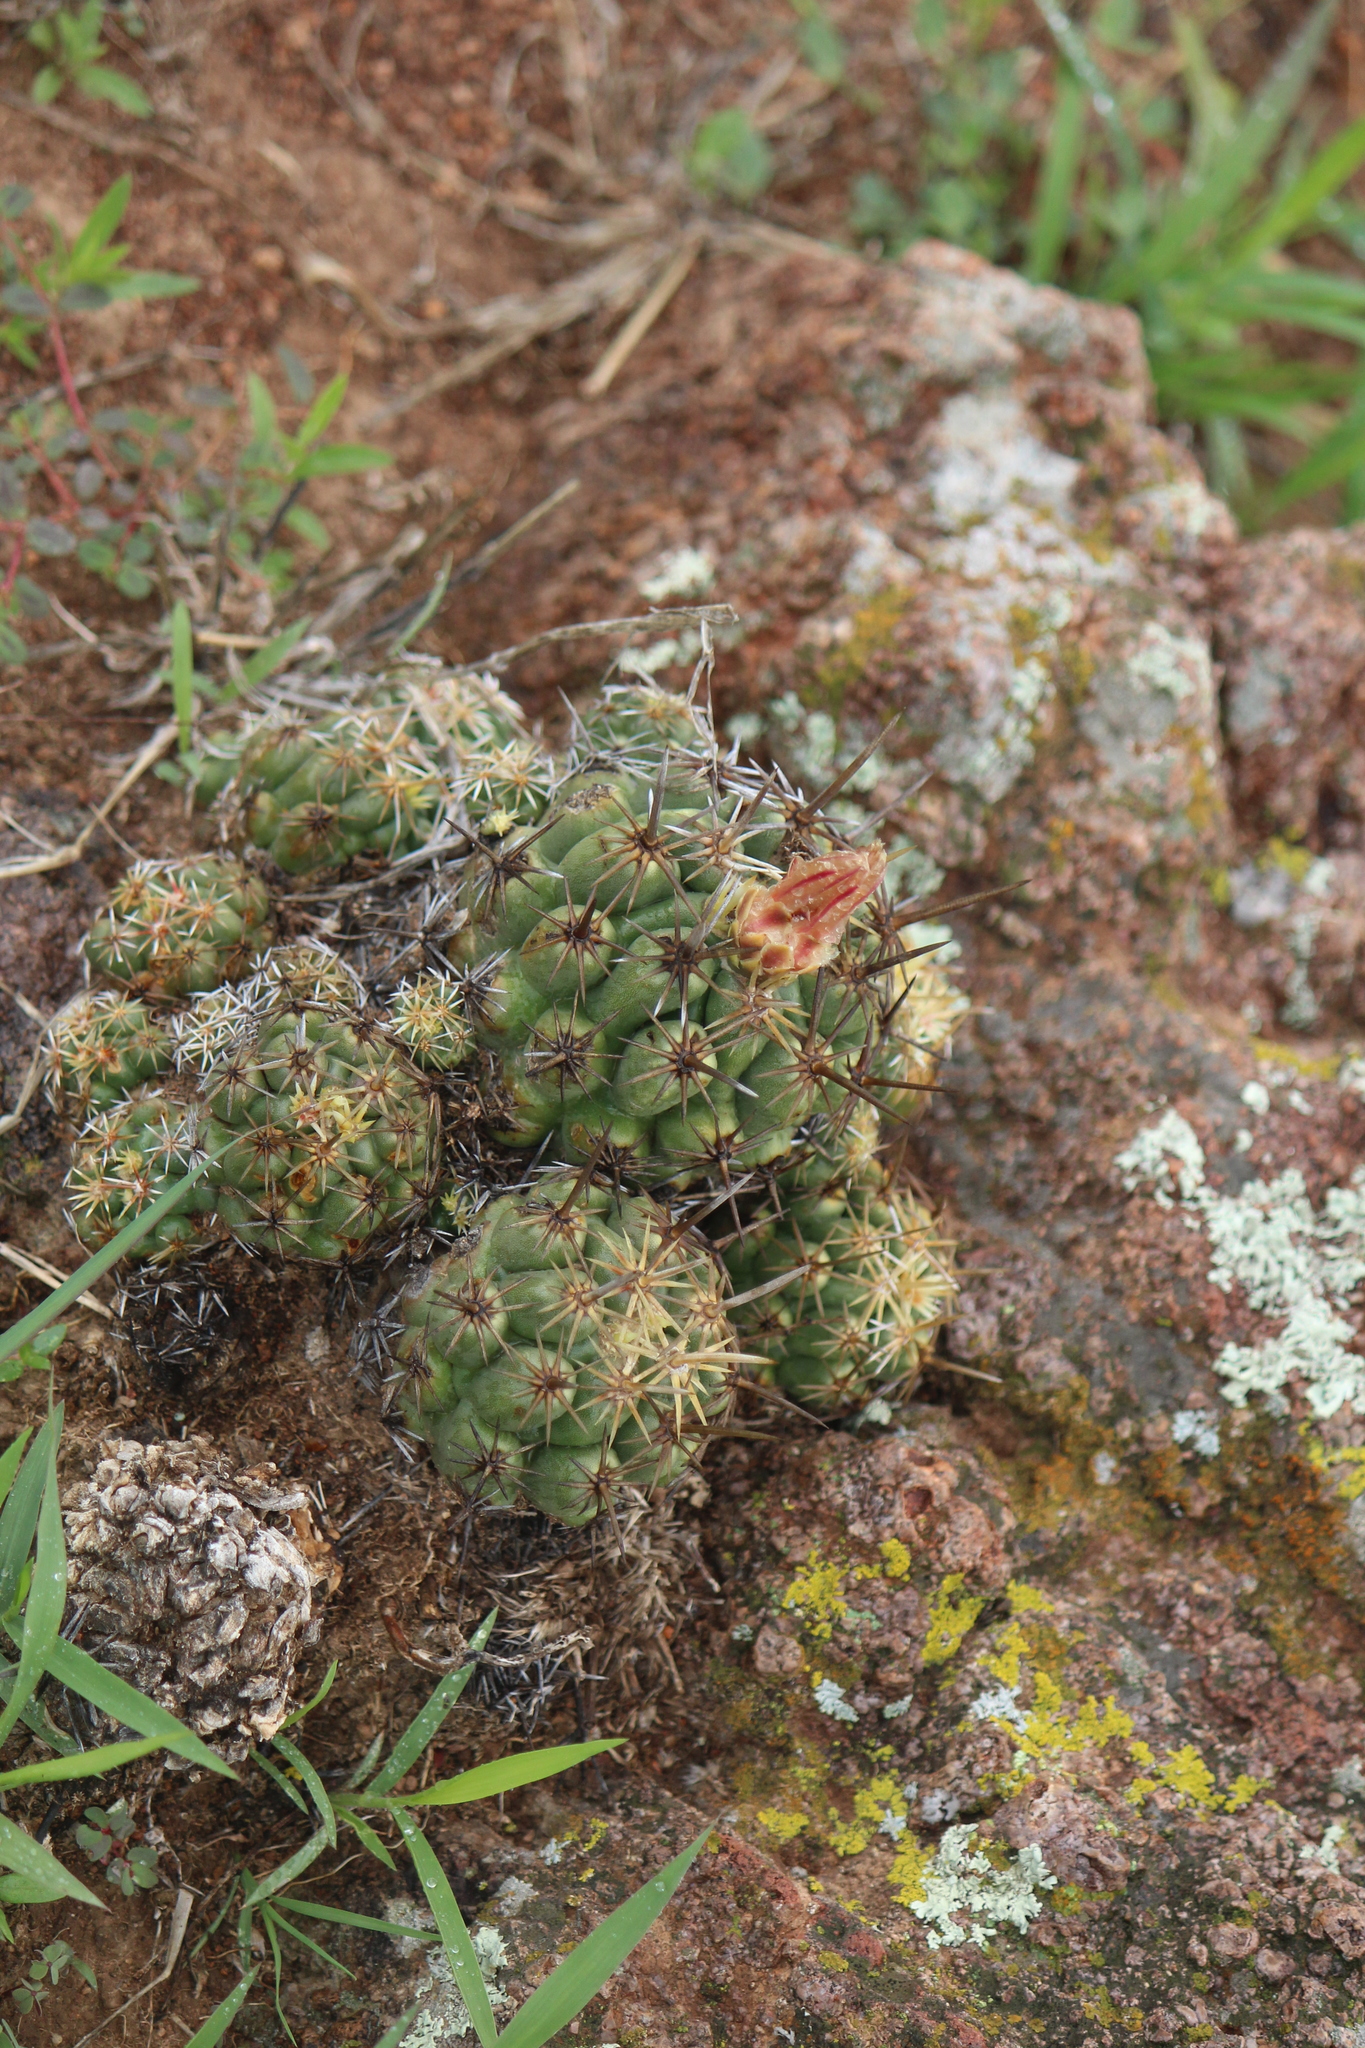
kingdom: Plantae
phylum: Tracheophyta
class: Magnoliopsida
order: Caryophyllales
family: Cactaceae
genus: Thelocactus
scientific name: Thelocactus leucacanthus
